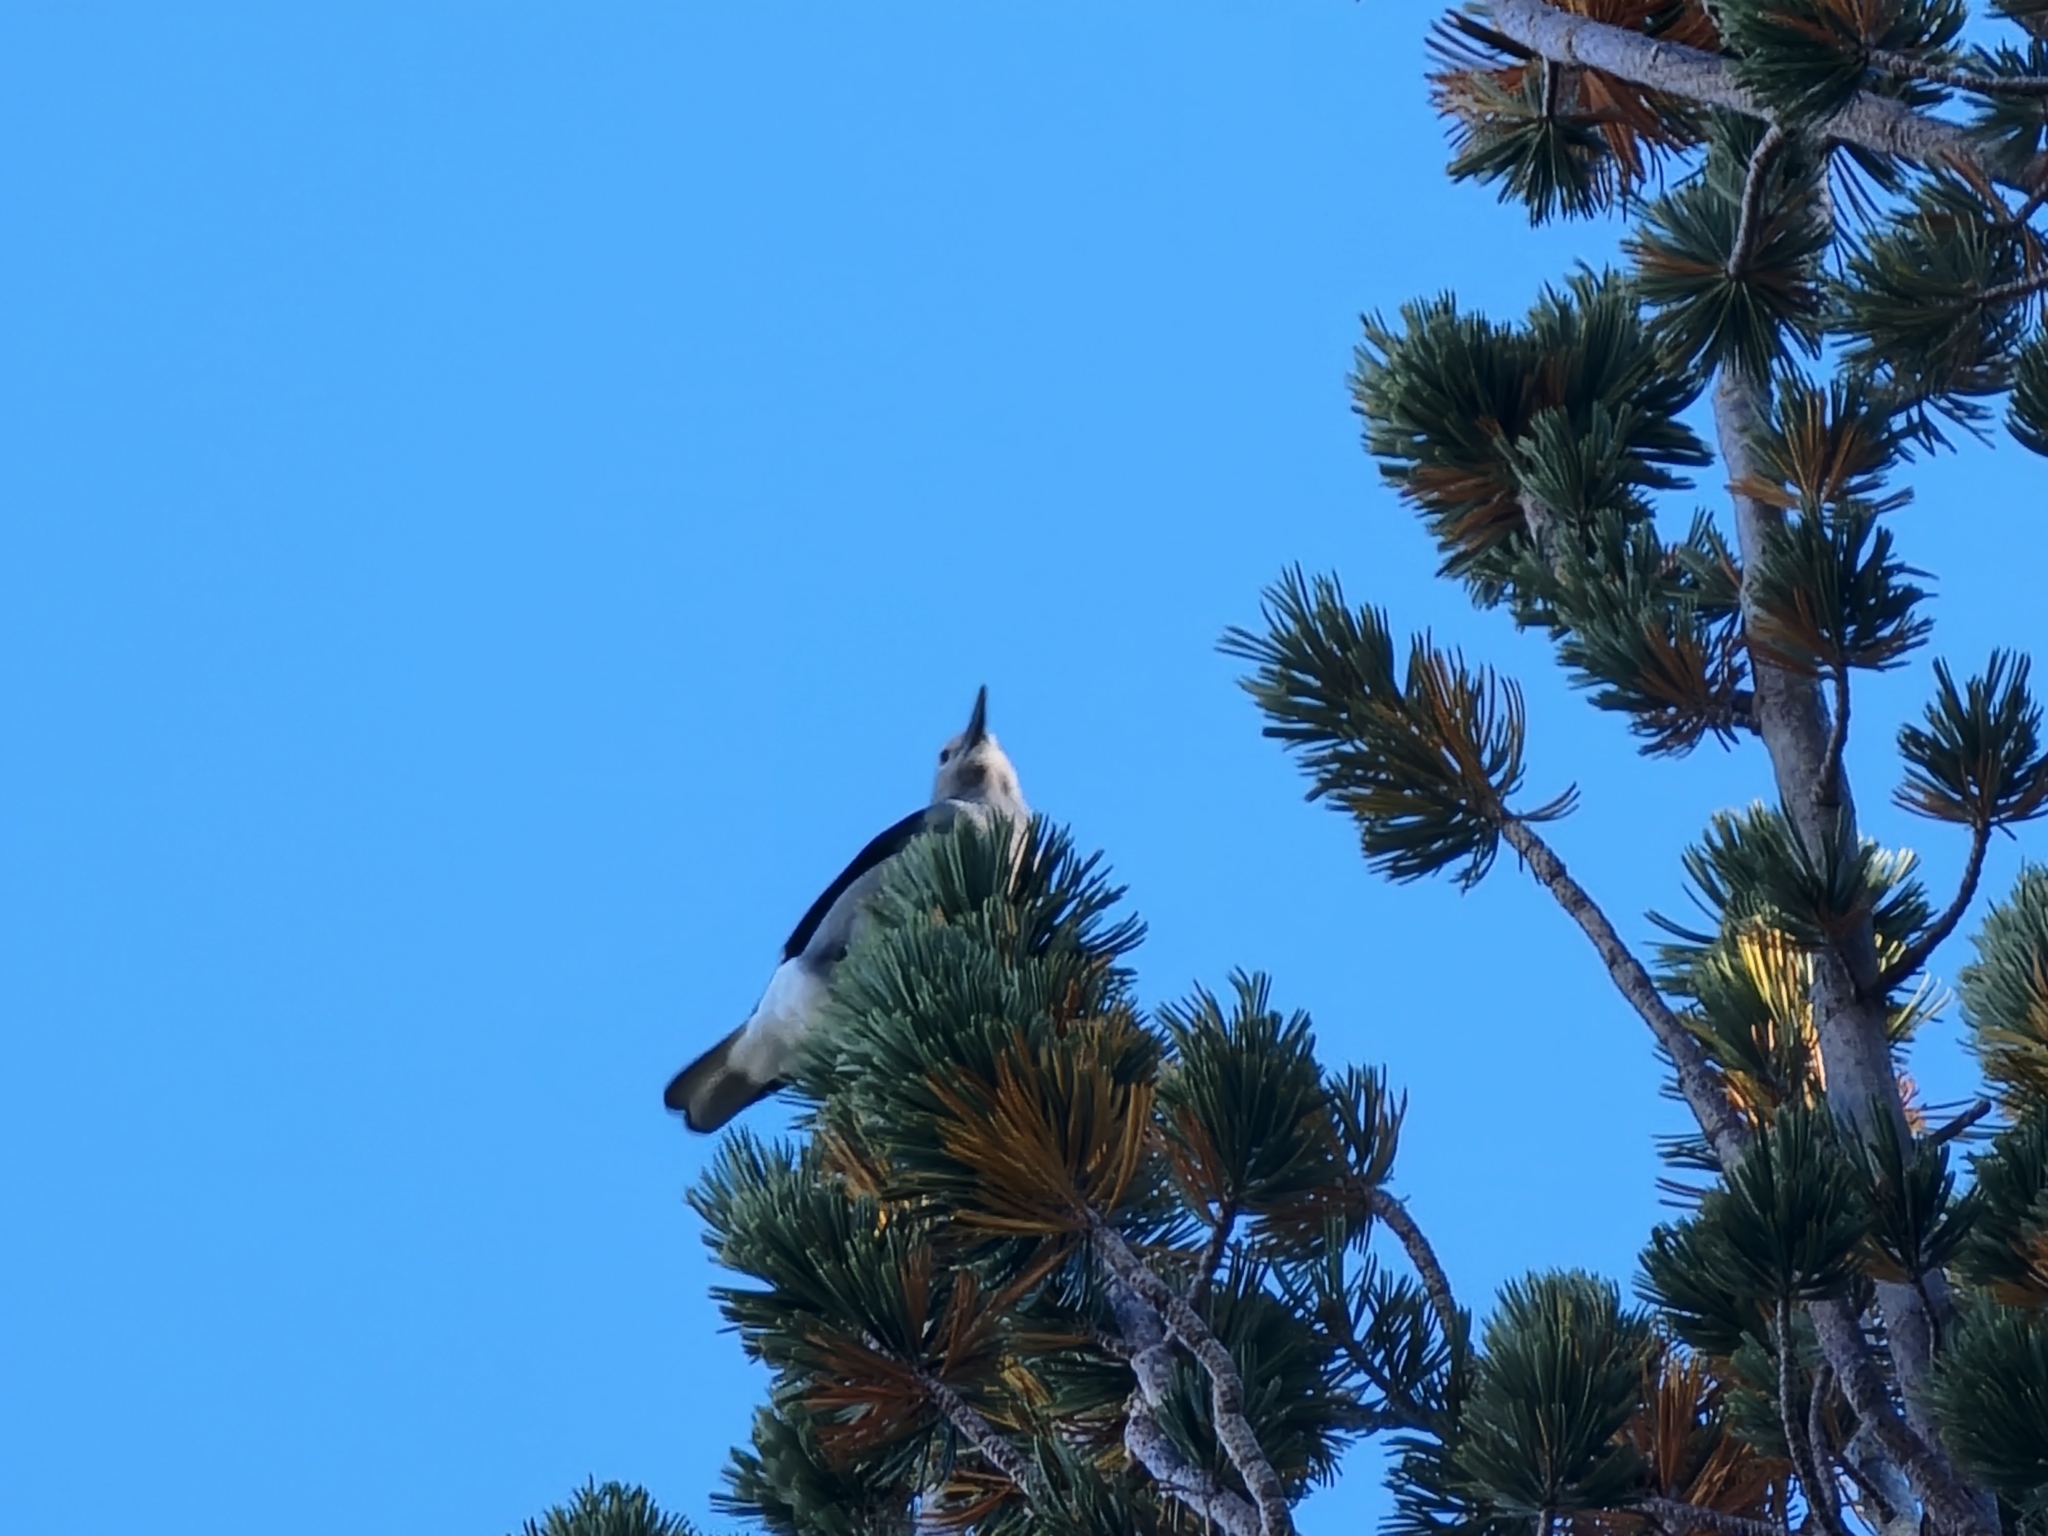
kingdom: Animalia
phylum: Chordata
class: Aves
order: Passeriformes
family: Corvidae
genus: Nucifraga
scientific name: Nucifraga columbiana
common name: Clark's nutcracker
